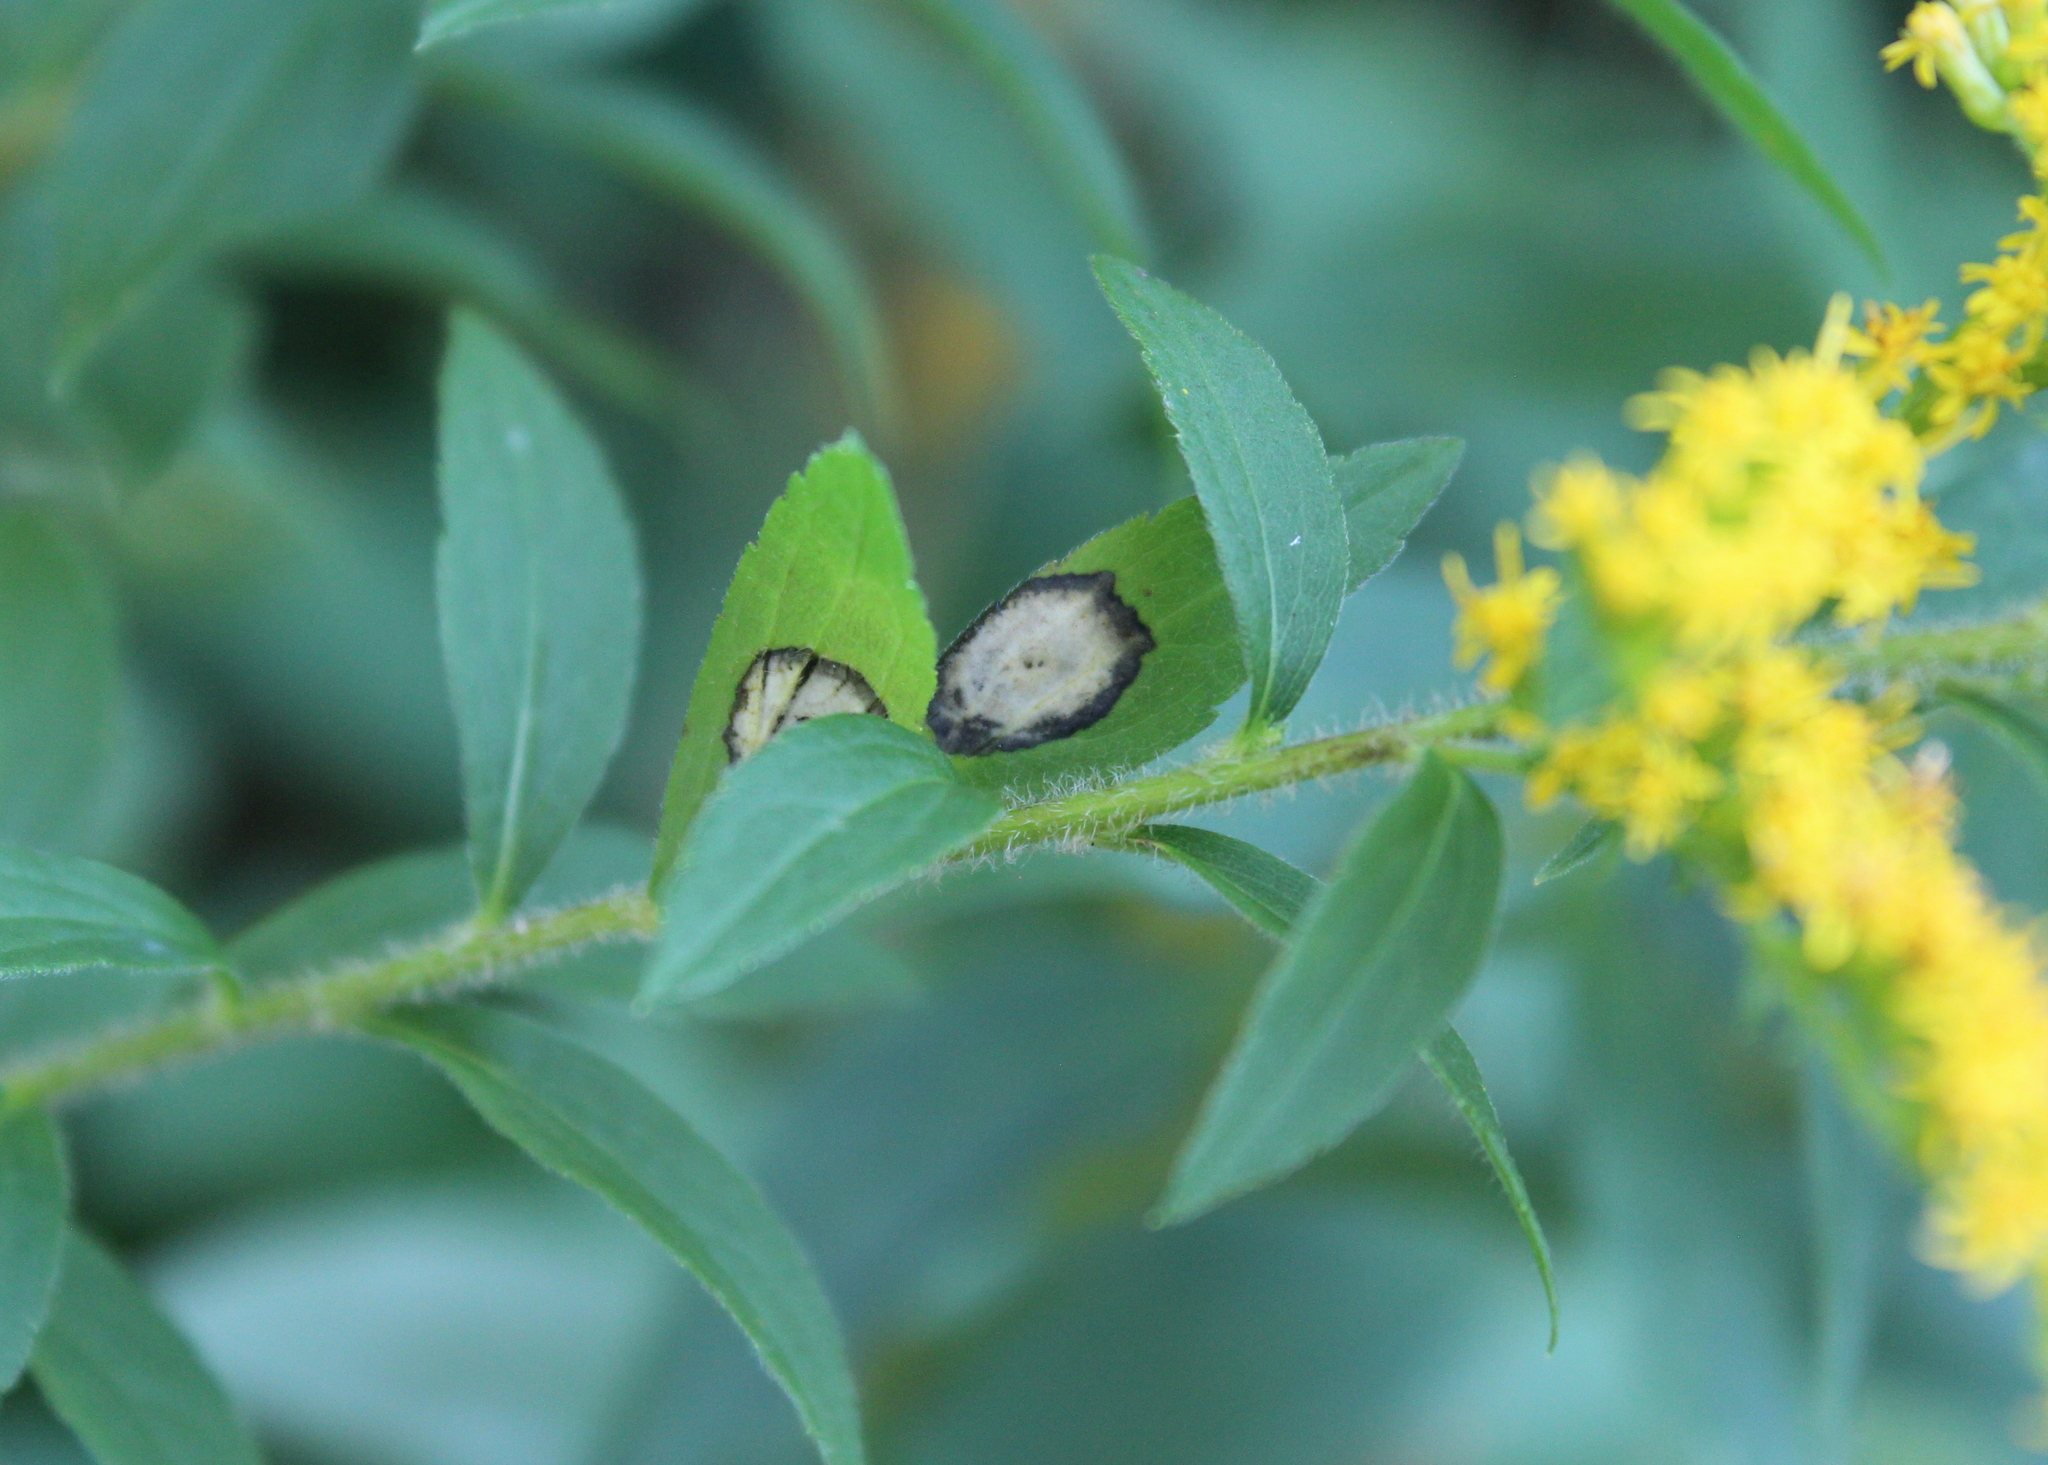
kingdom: Animalia
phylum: Arthropoda
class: Insecta
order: Diptera
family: Cecidomyiidae
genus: Asteromyia
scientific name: Asteromyia carbonifera
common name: Carbonifera goldenrod gall midge
